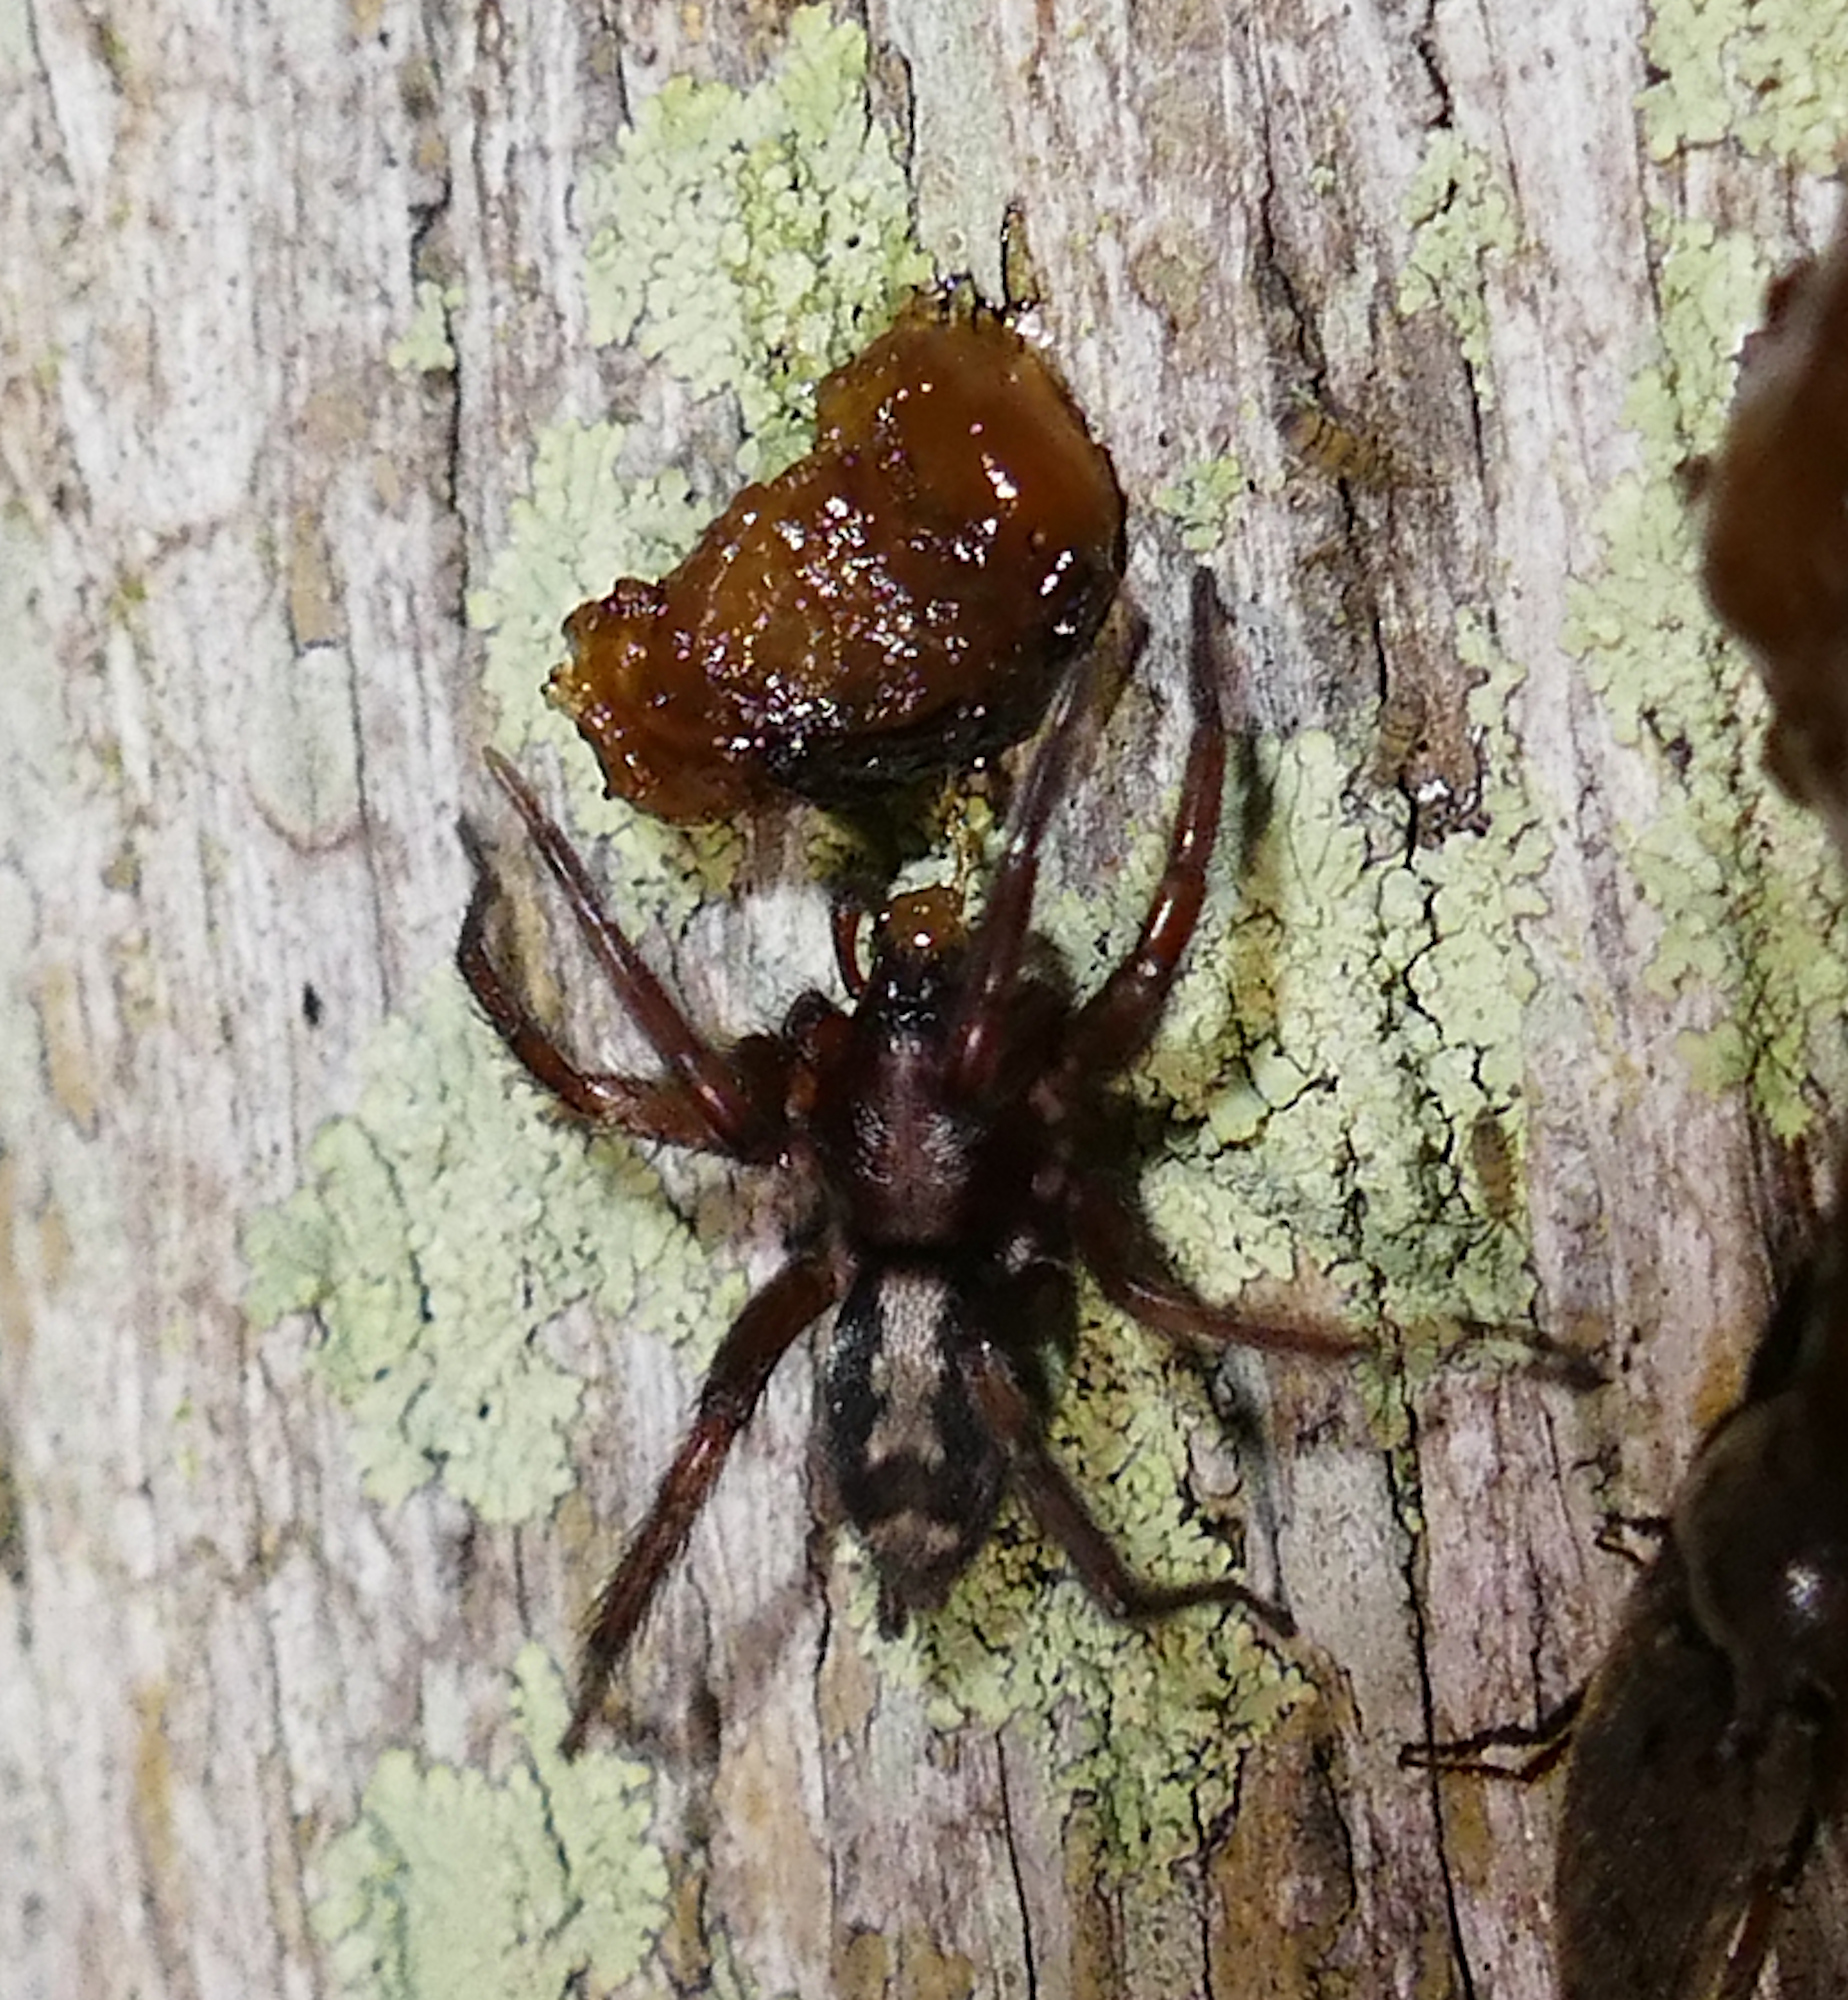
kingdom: Animalia
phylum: Arthropoda
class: Arachnida
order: Araneae
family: Gnaphosidae
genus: Herpyllus
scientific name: Herpyllus ecclesiasticus
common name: Eastern parson spider
